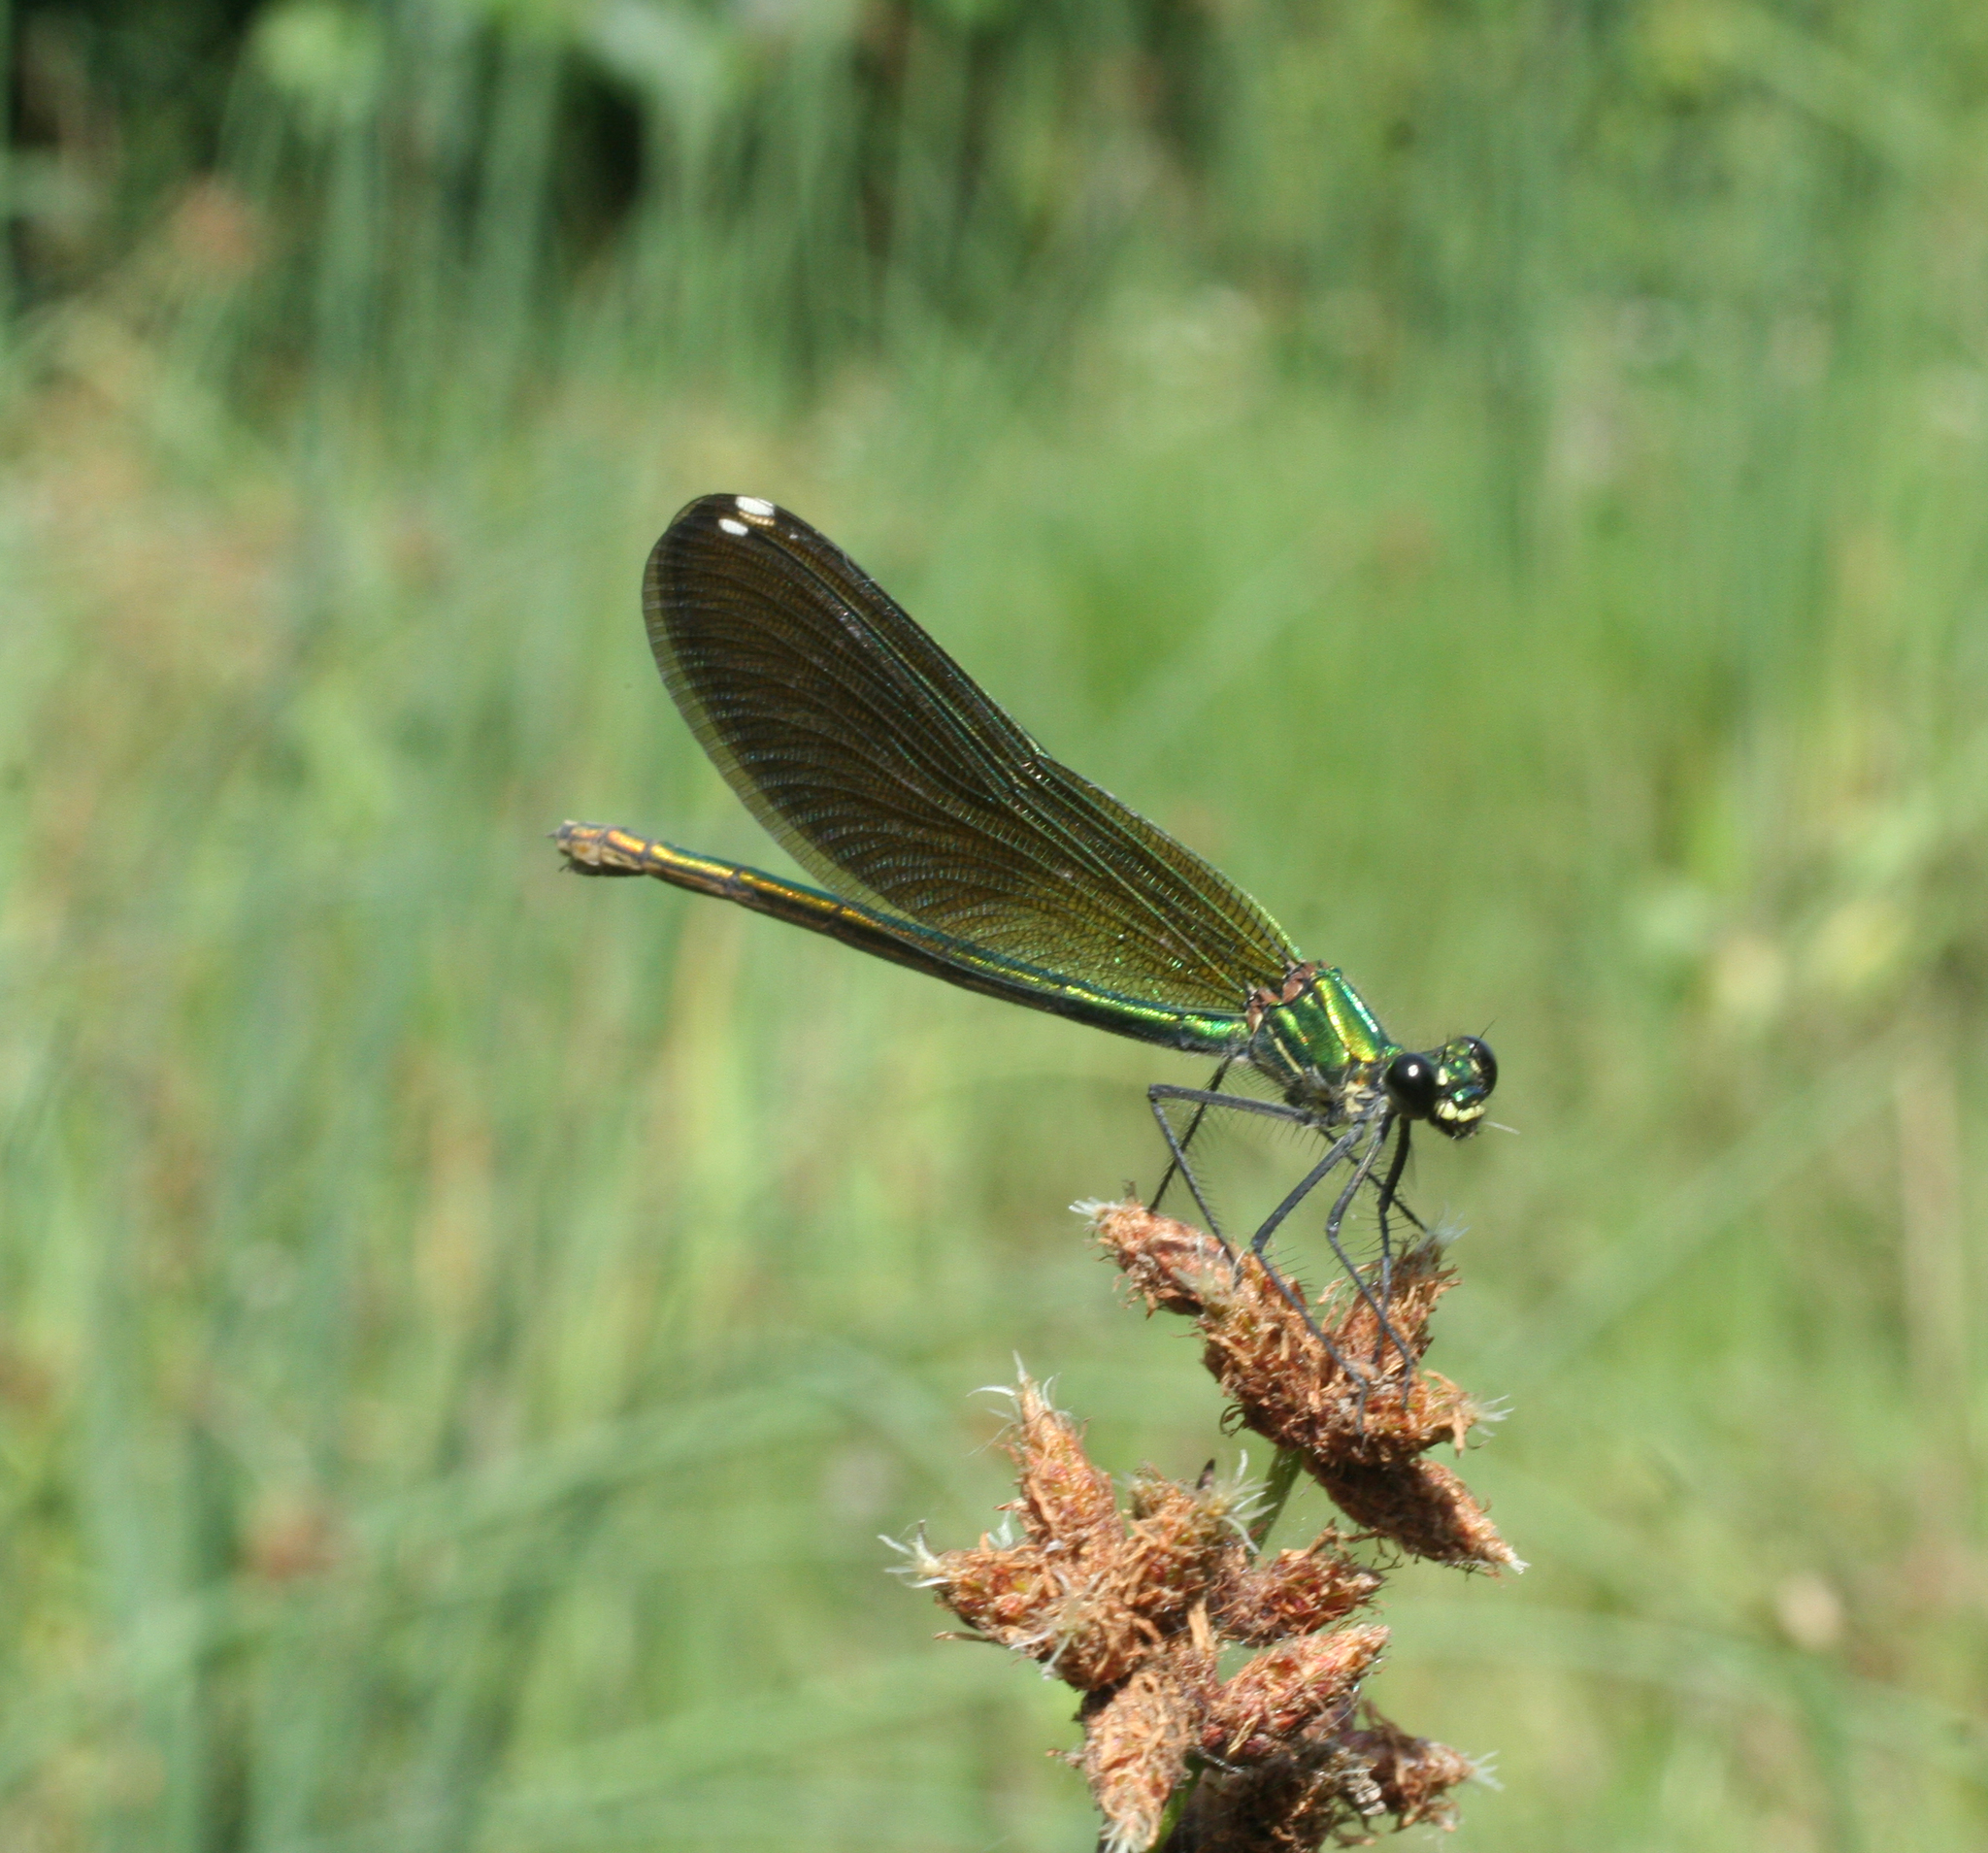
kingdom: Animalia
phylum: Arthropoda
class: Insecta
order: Odonata
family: Calopterygidae
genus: Calopteryx
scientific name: Calopteryx splendens
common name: Banded demoiselle
